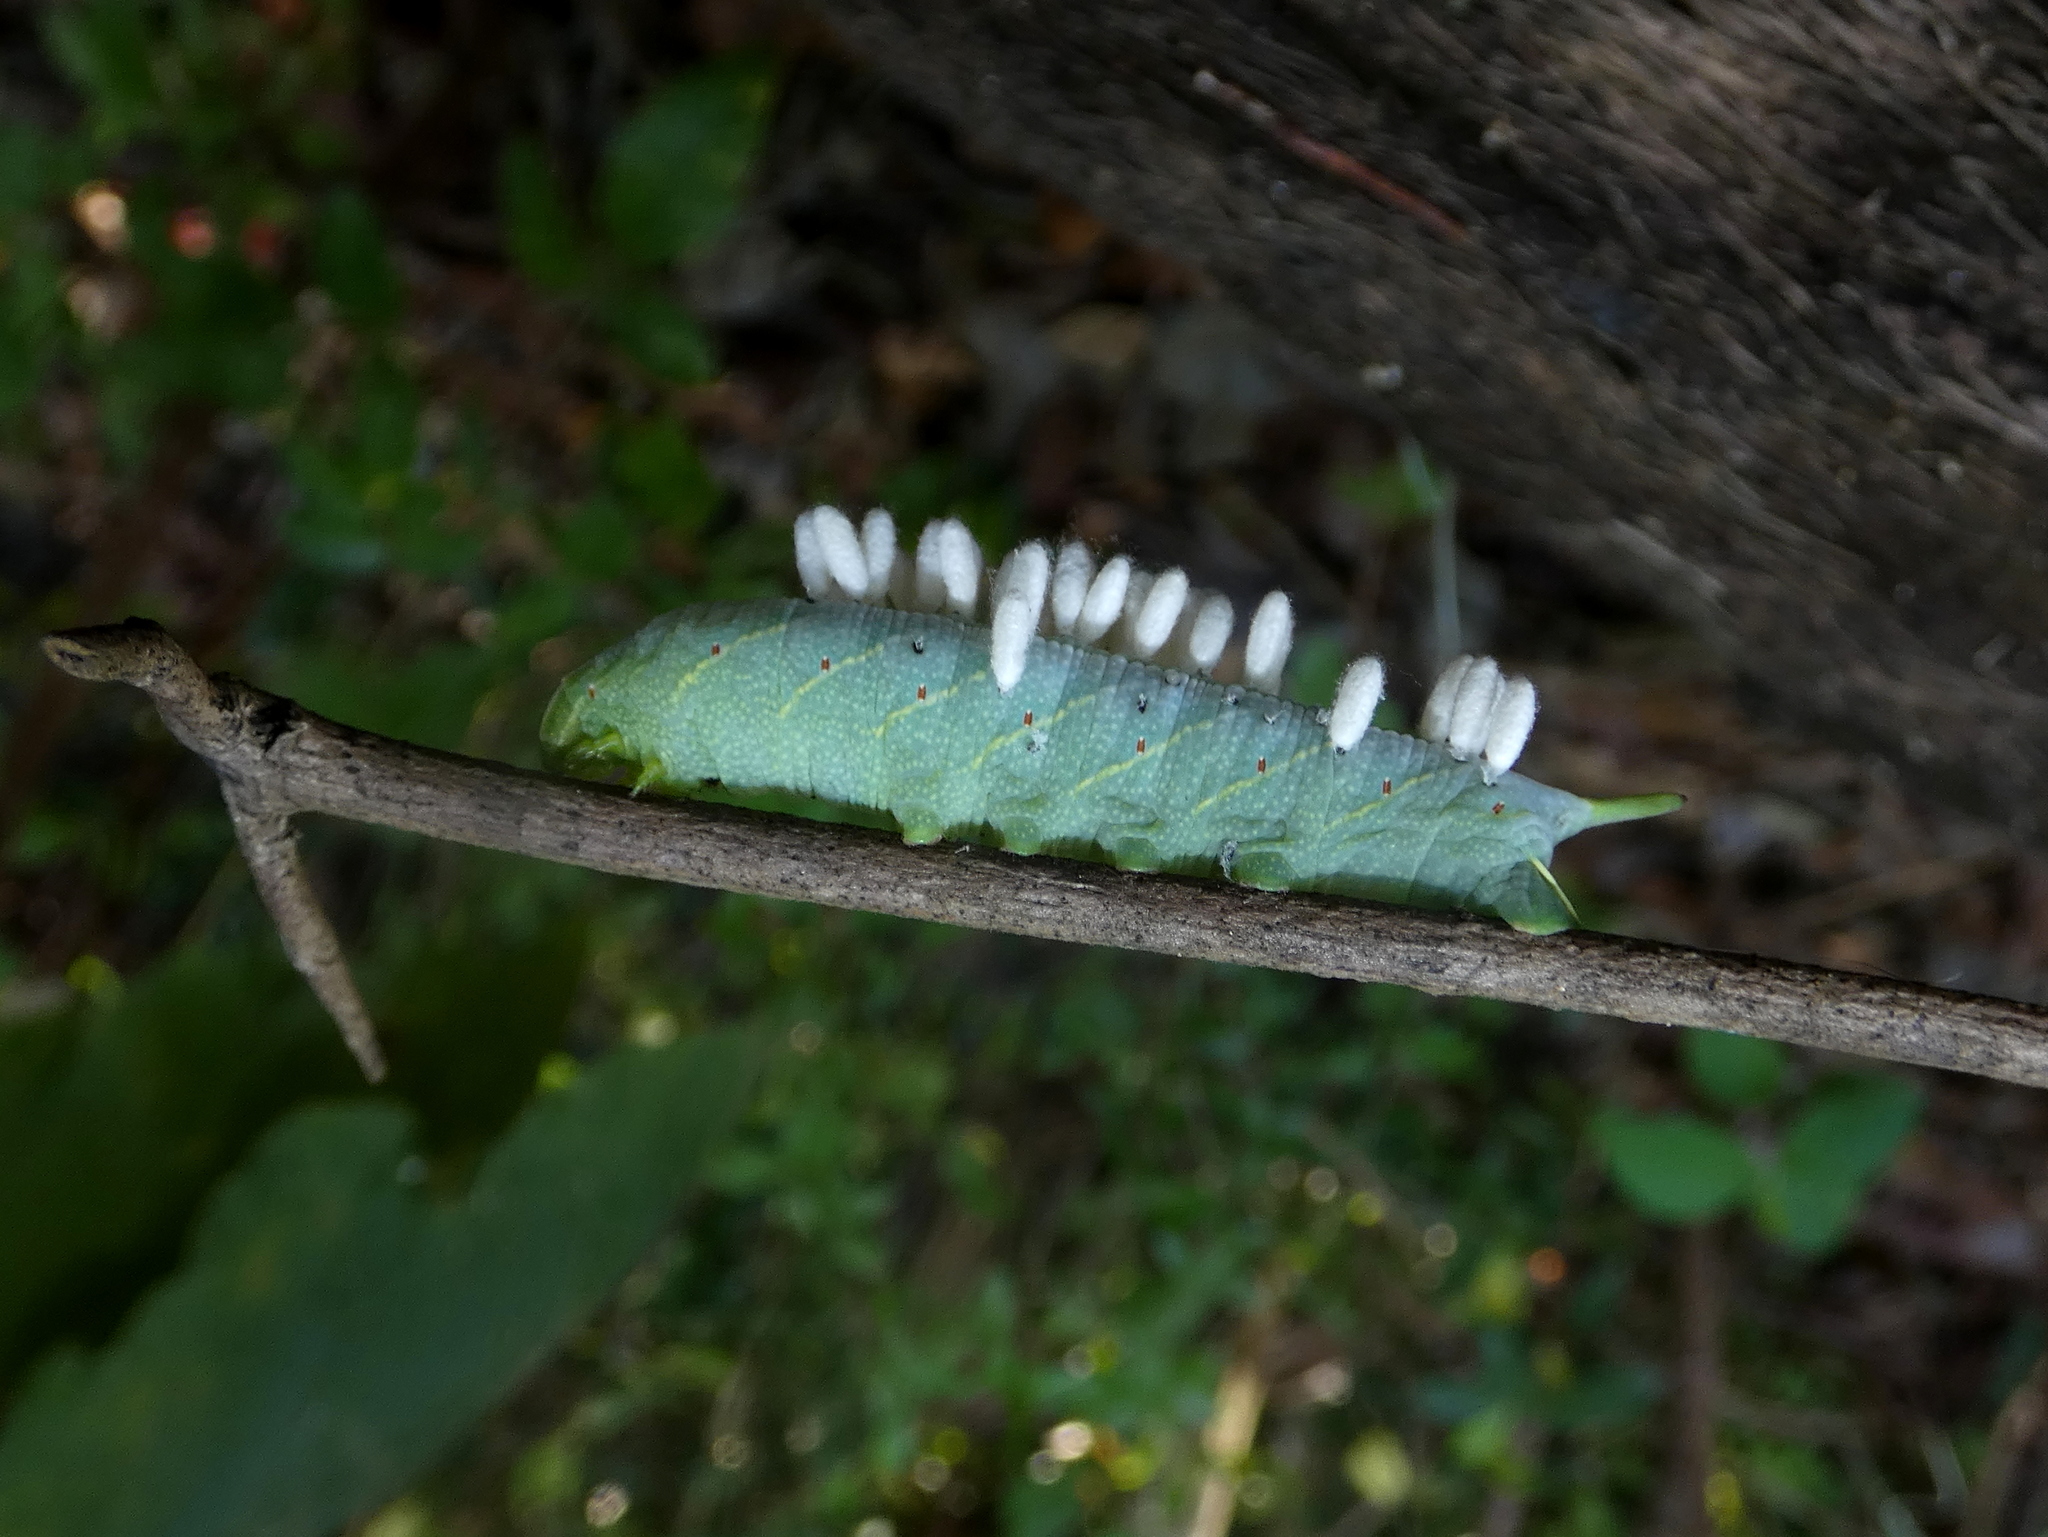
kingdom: Animalia
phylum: Arthropoda
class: Insecta
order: Lepidoptera
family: Sphingidae
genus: Enyo
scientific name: Enyo lugubris
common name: Mournful sphinx
